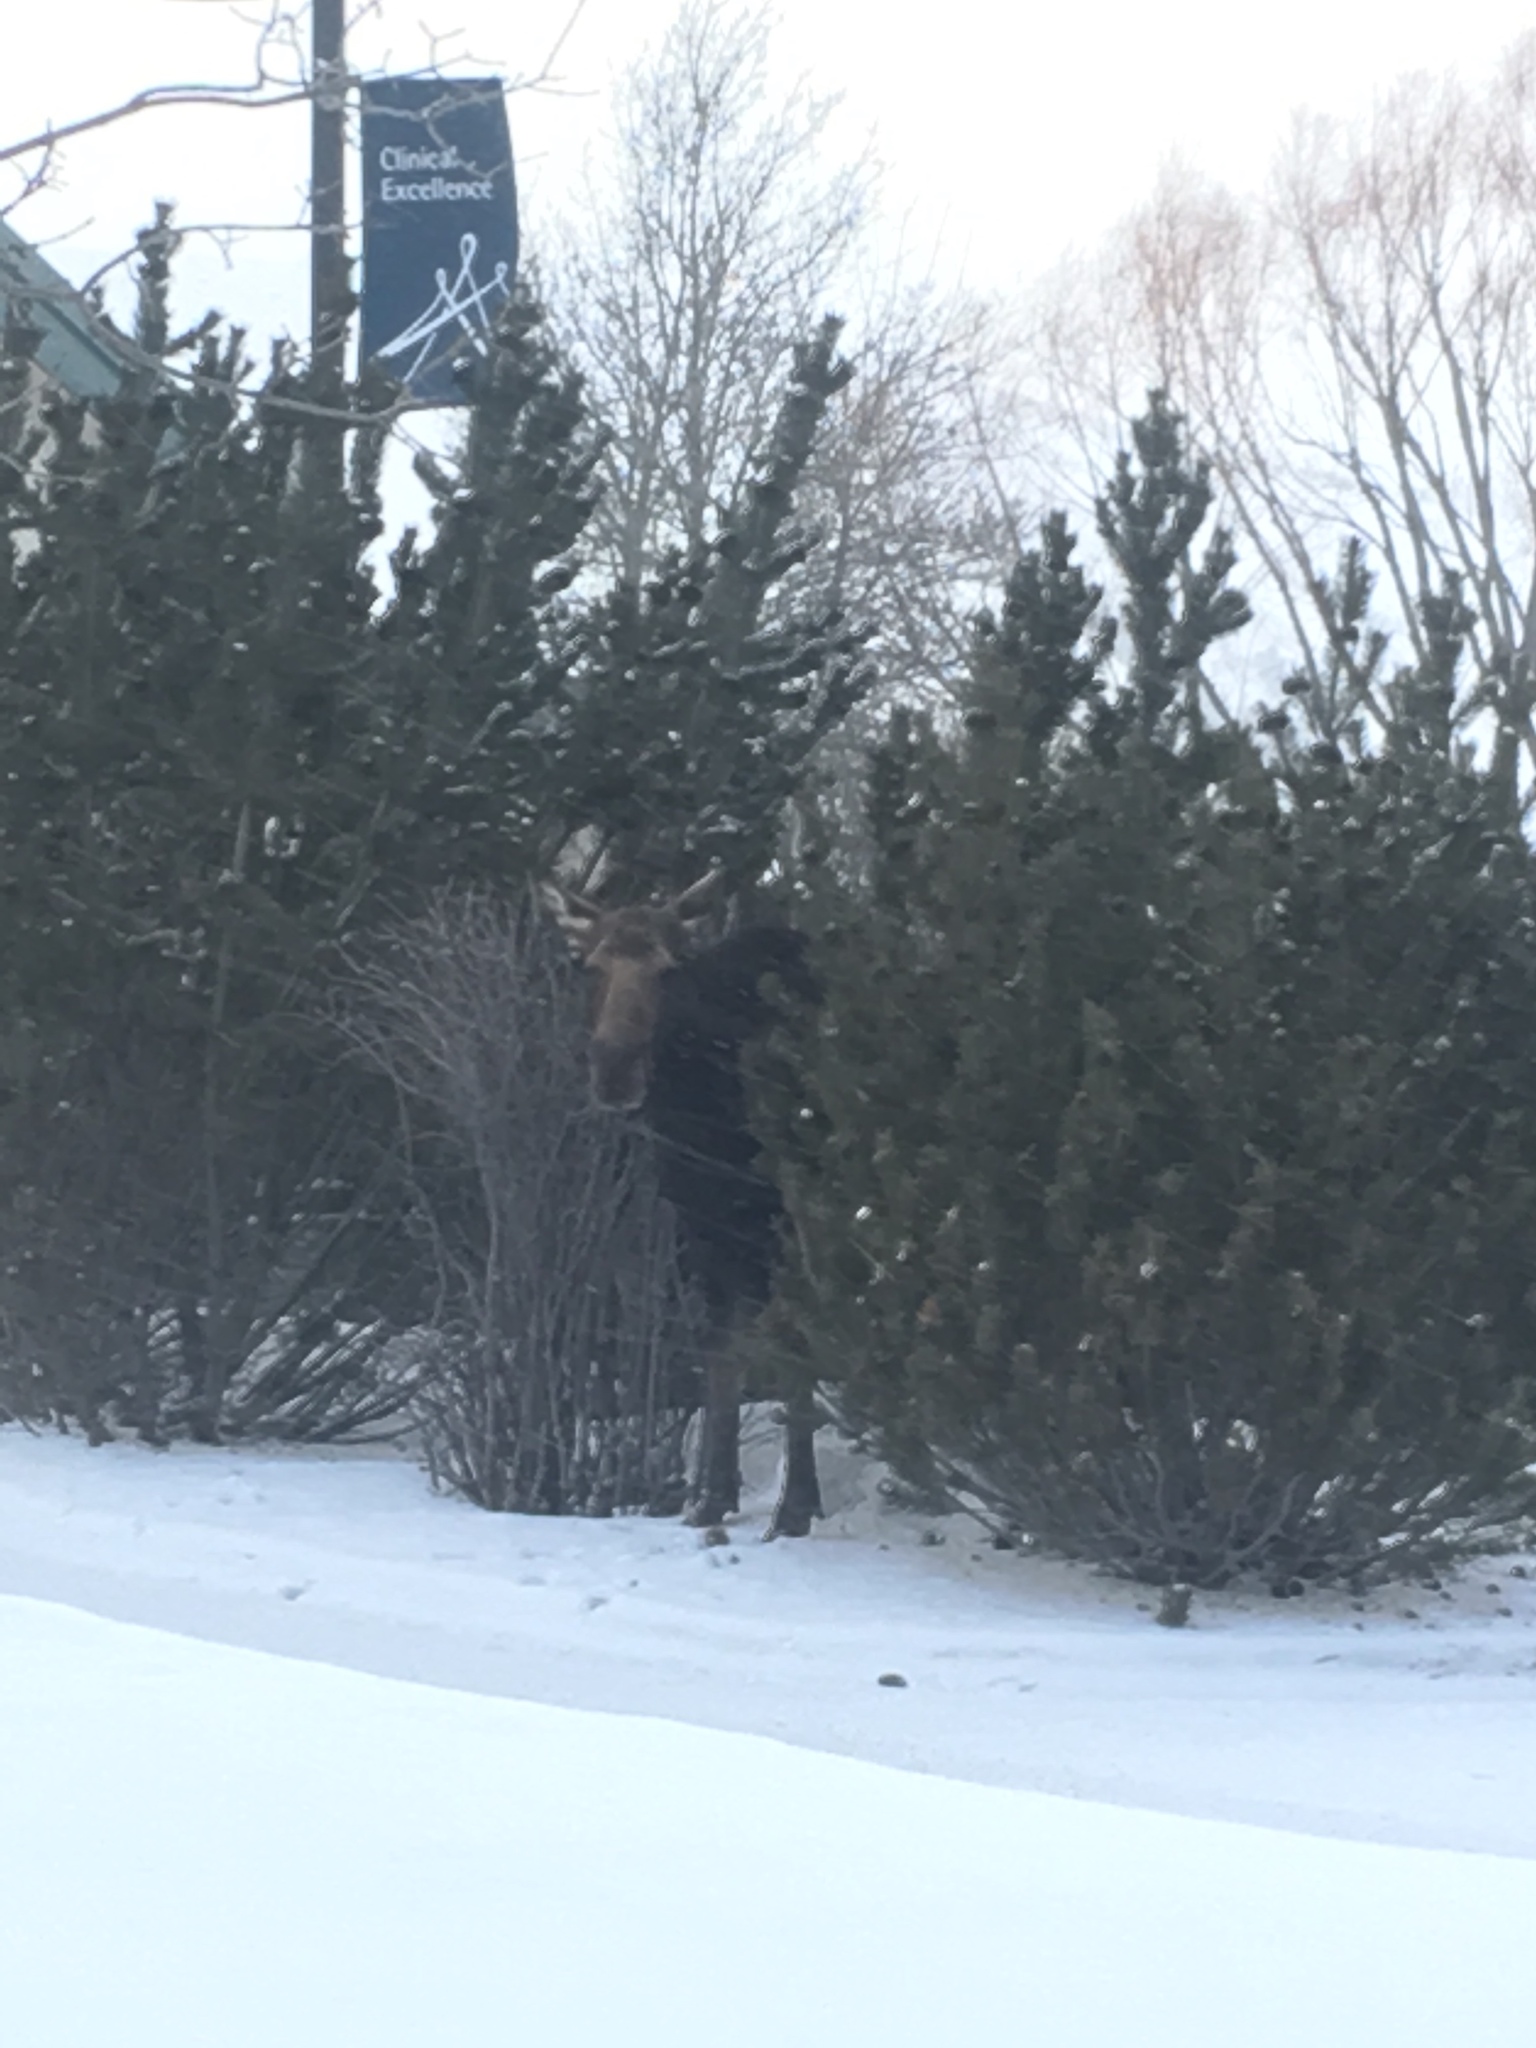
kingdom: Animalia
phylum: Chordata
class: Mammalia
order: Artiodactyla
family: Cervidae
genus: Alces
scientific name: Alces alces
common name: Moose
